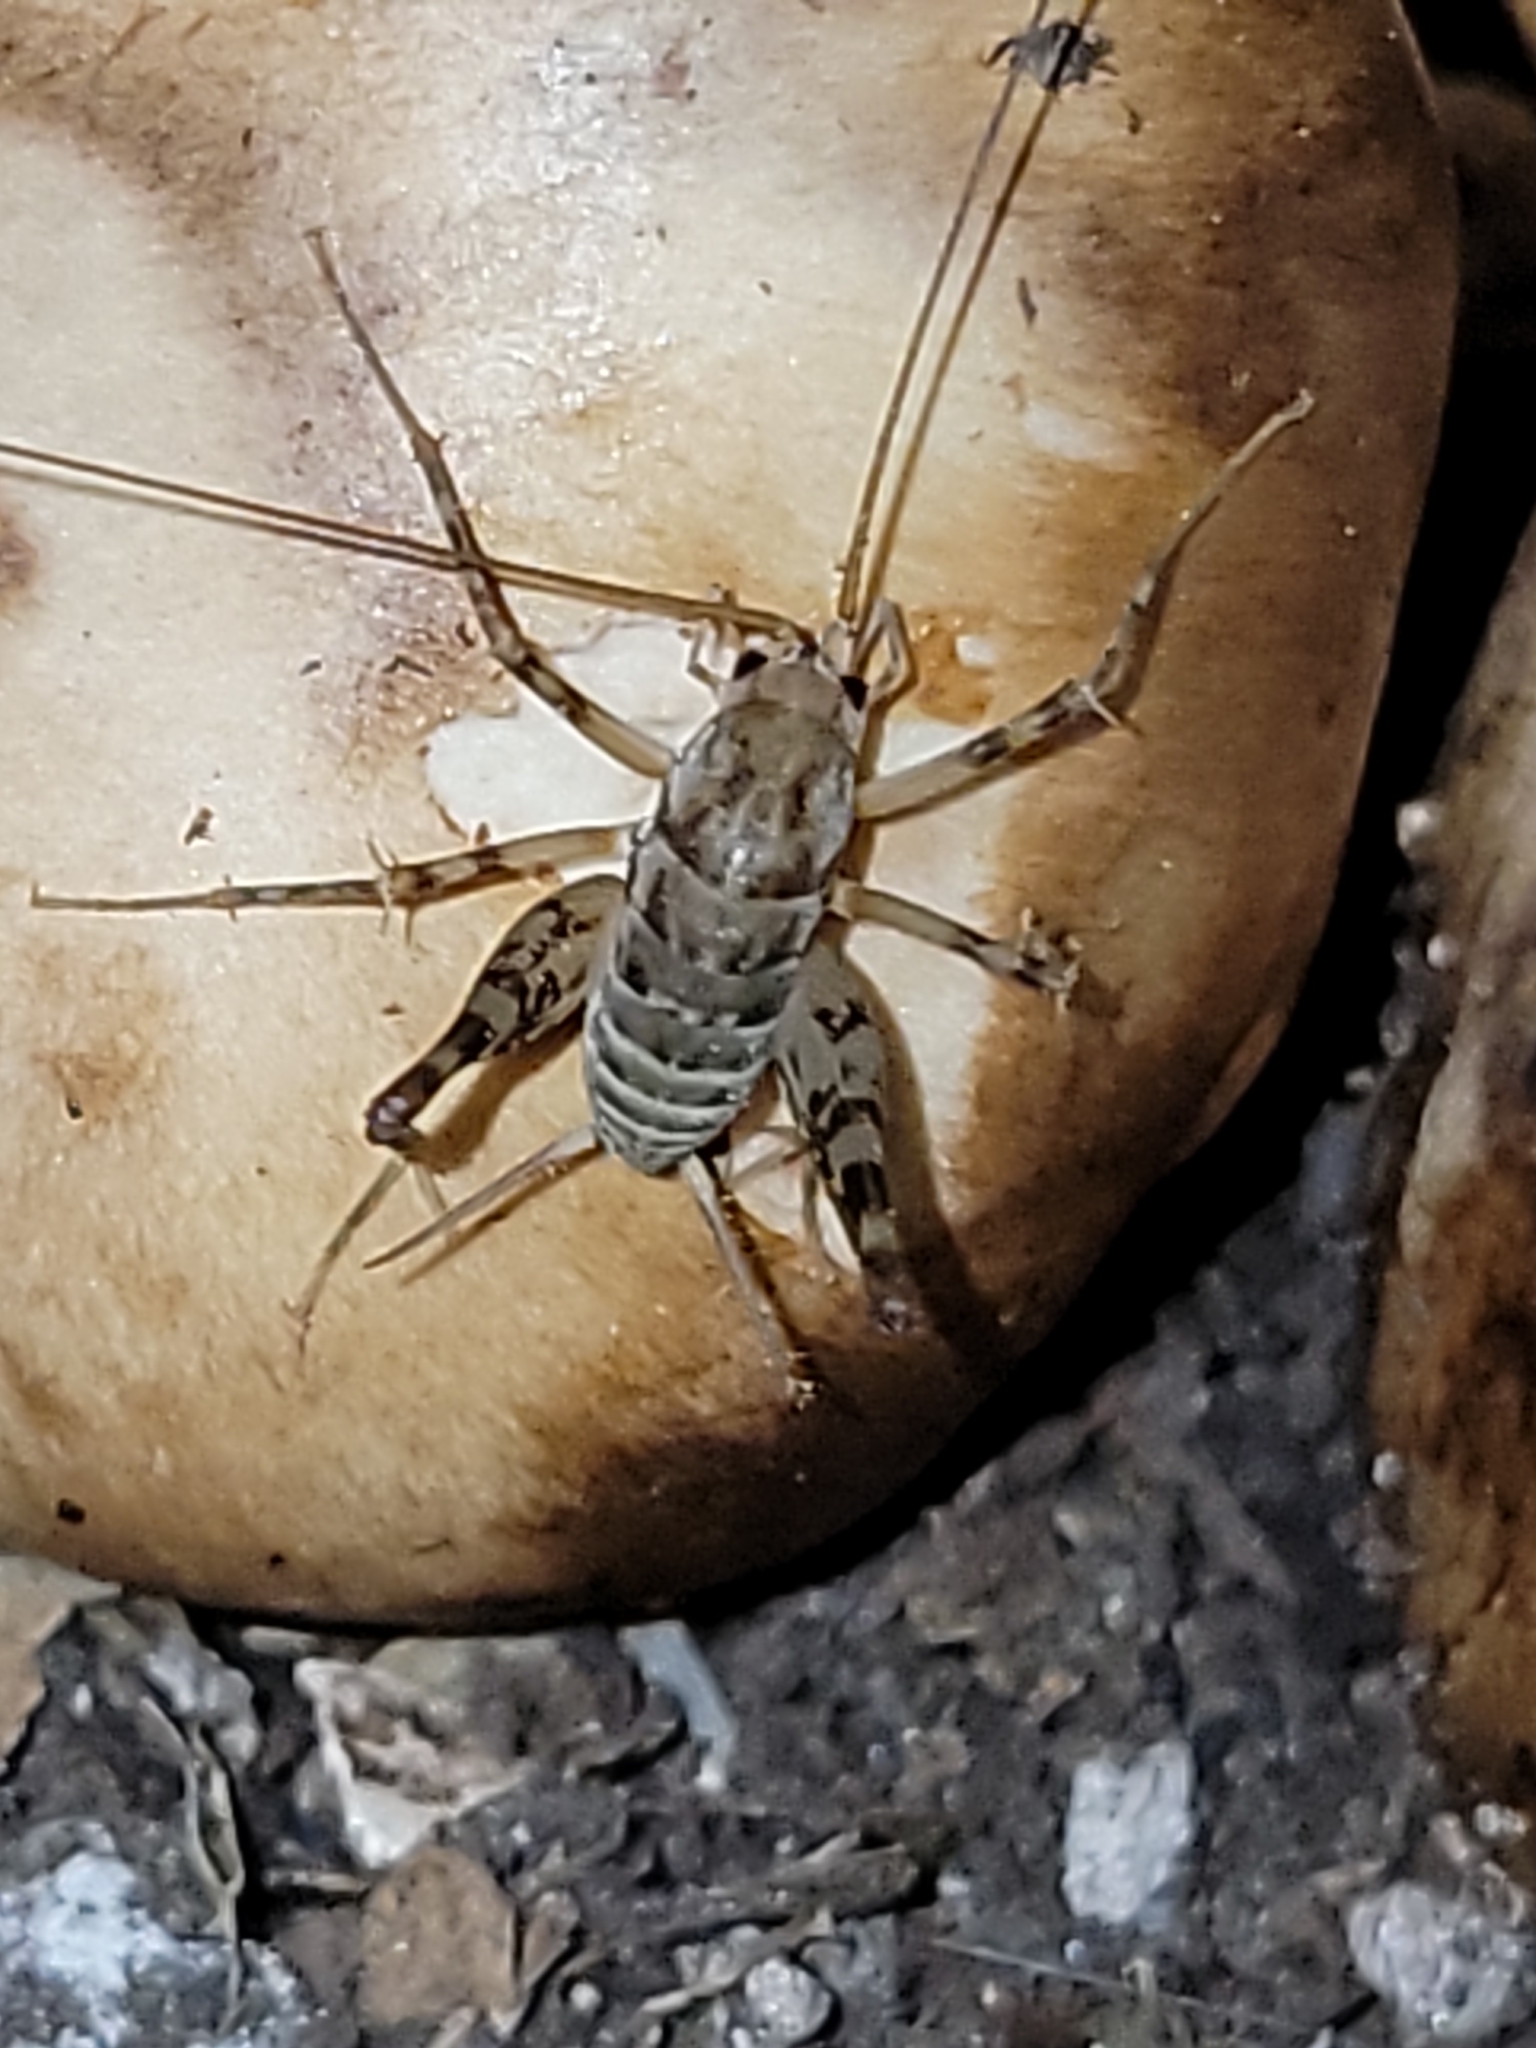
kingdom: Animalia
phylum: Arthropoda
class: Insecta
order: Orthoptera
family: Rhaphidophoridae
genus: Tachycines
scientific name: Tachycines asynamorus
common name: Greenhouse camel cricket
